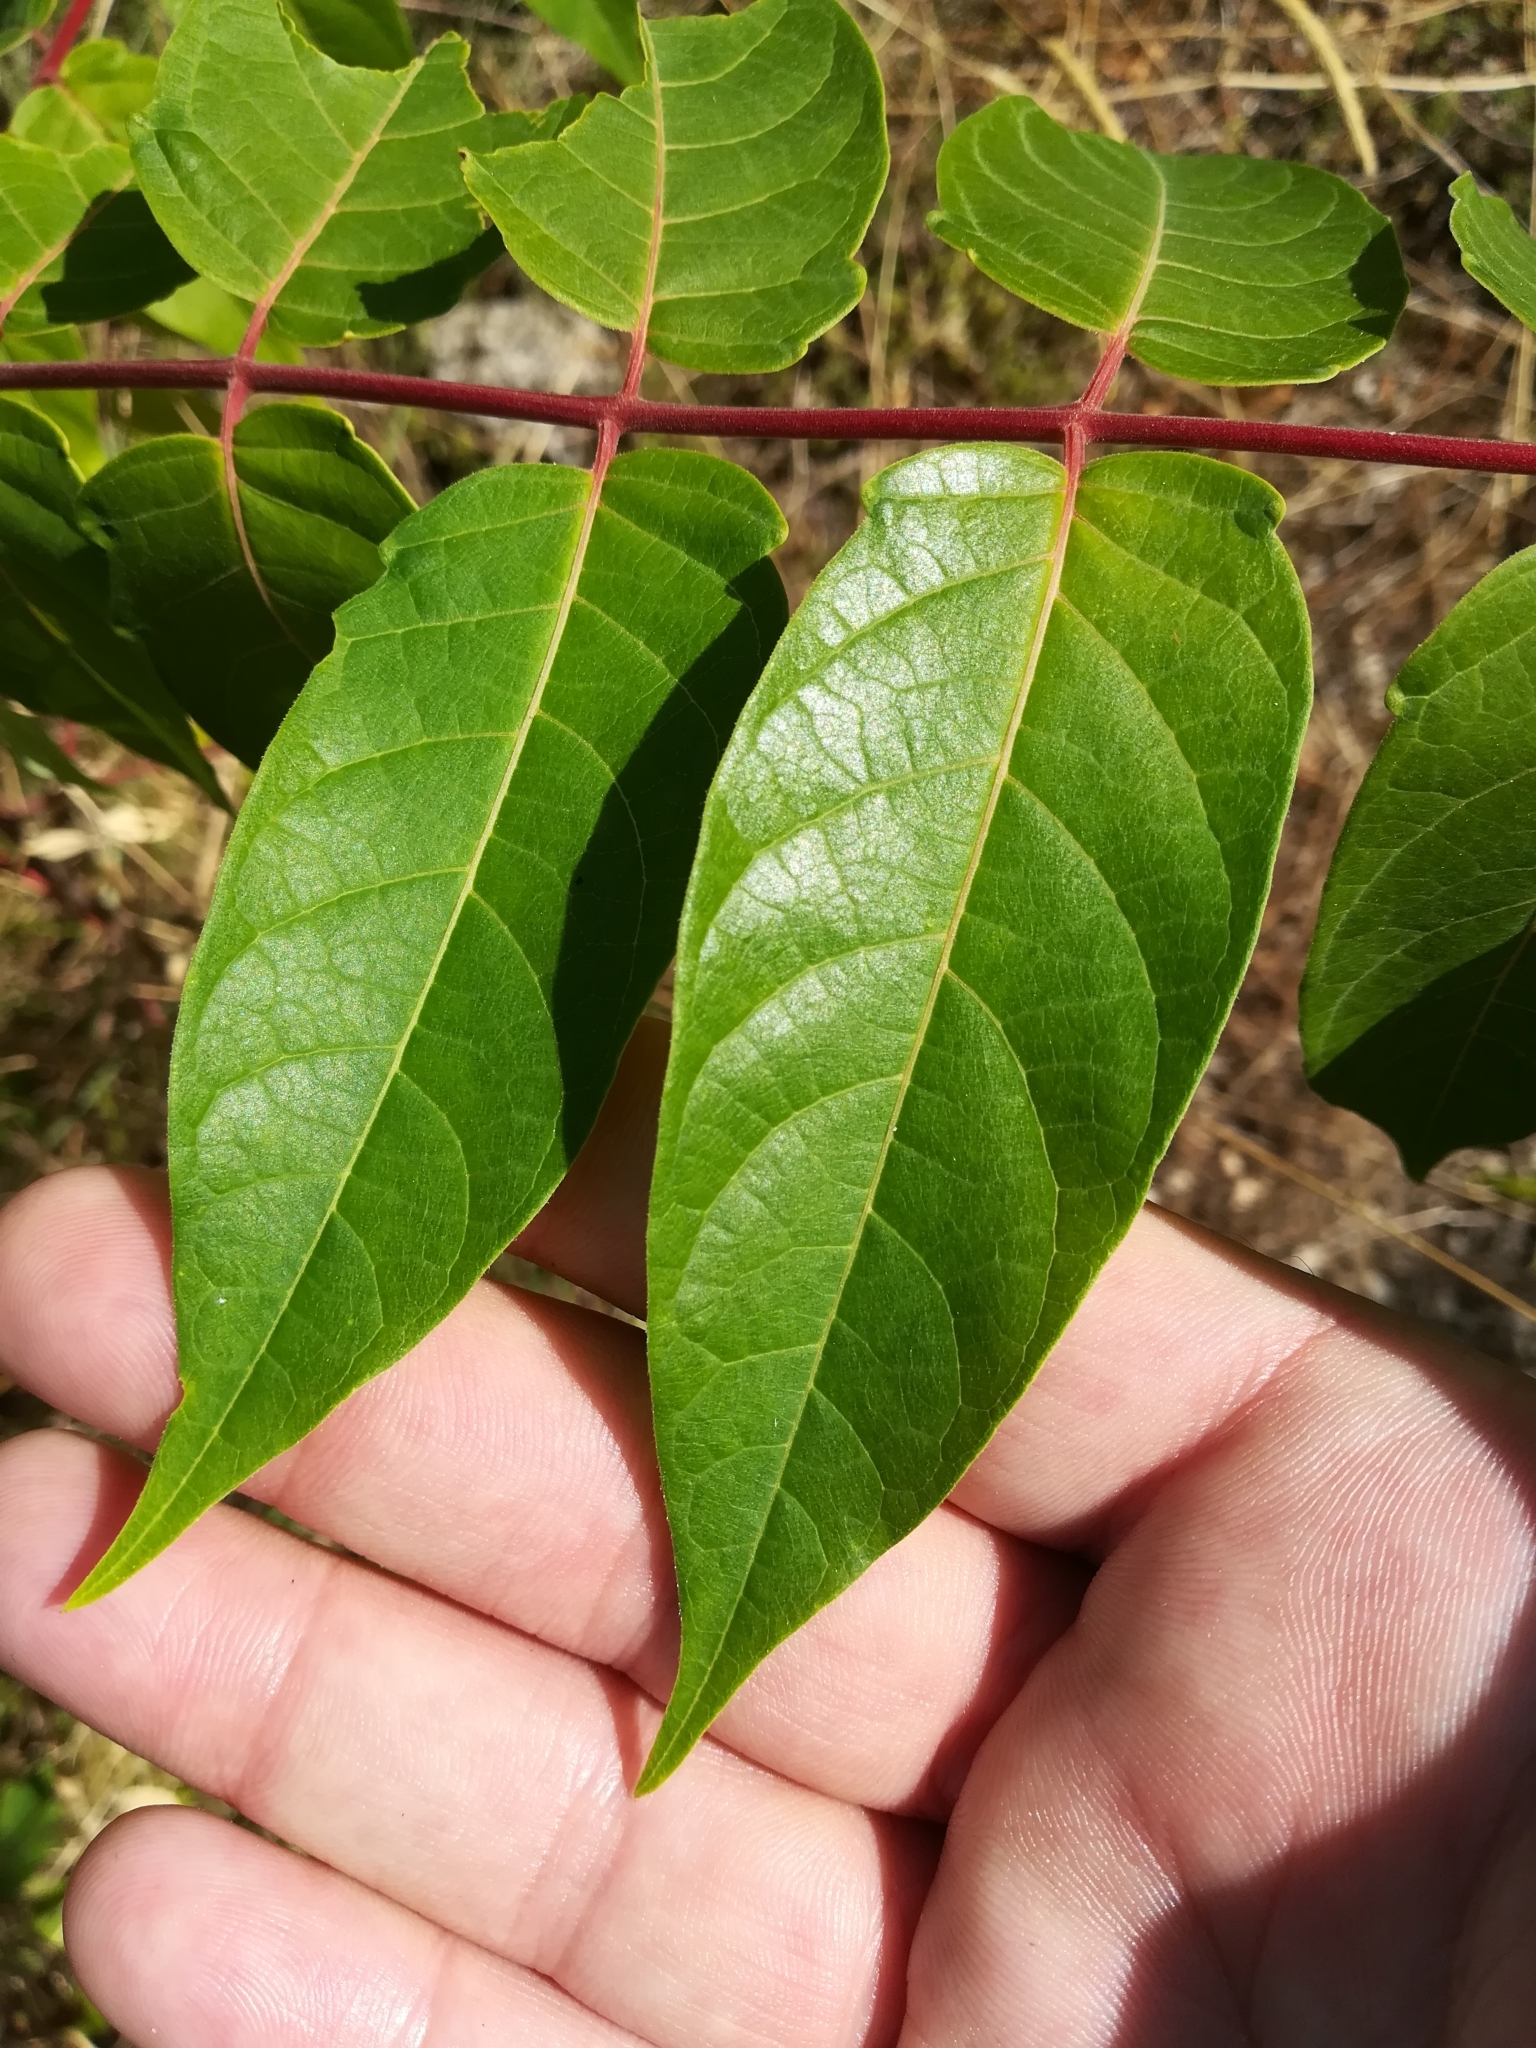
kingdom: Plantae
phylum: Tracheophyta
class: Magnoliopsida
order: Sapindales
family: Simaroubaceae
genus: Ailanthus
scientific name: Ailanthus altissima
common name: Tree-of-heaven
